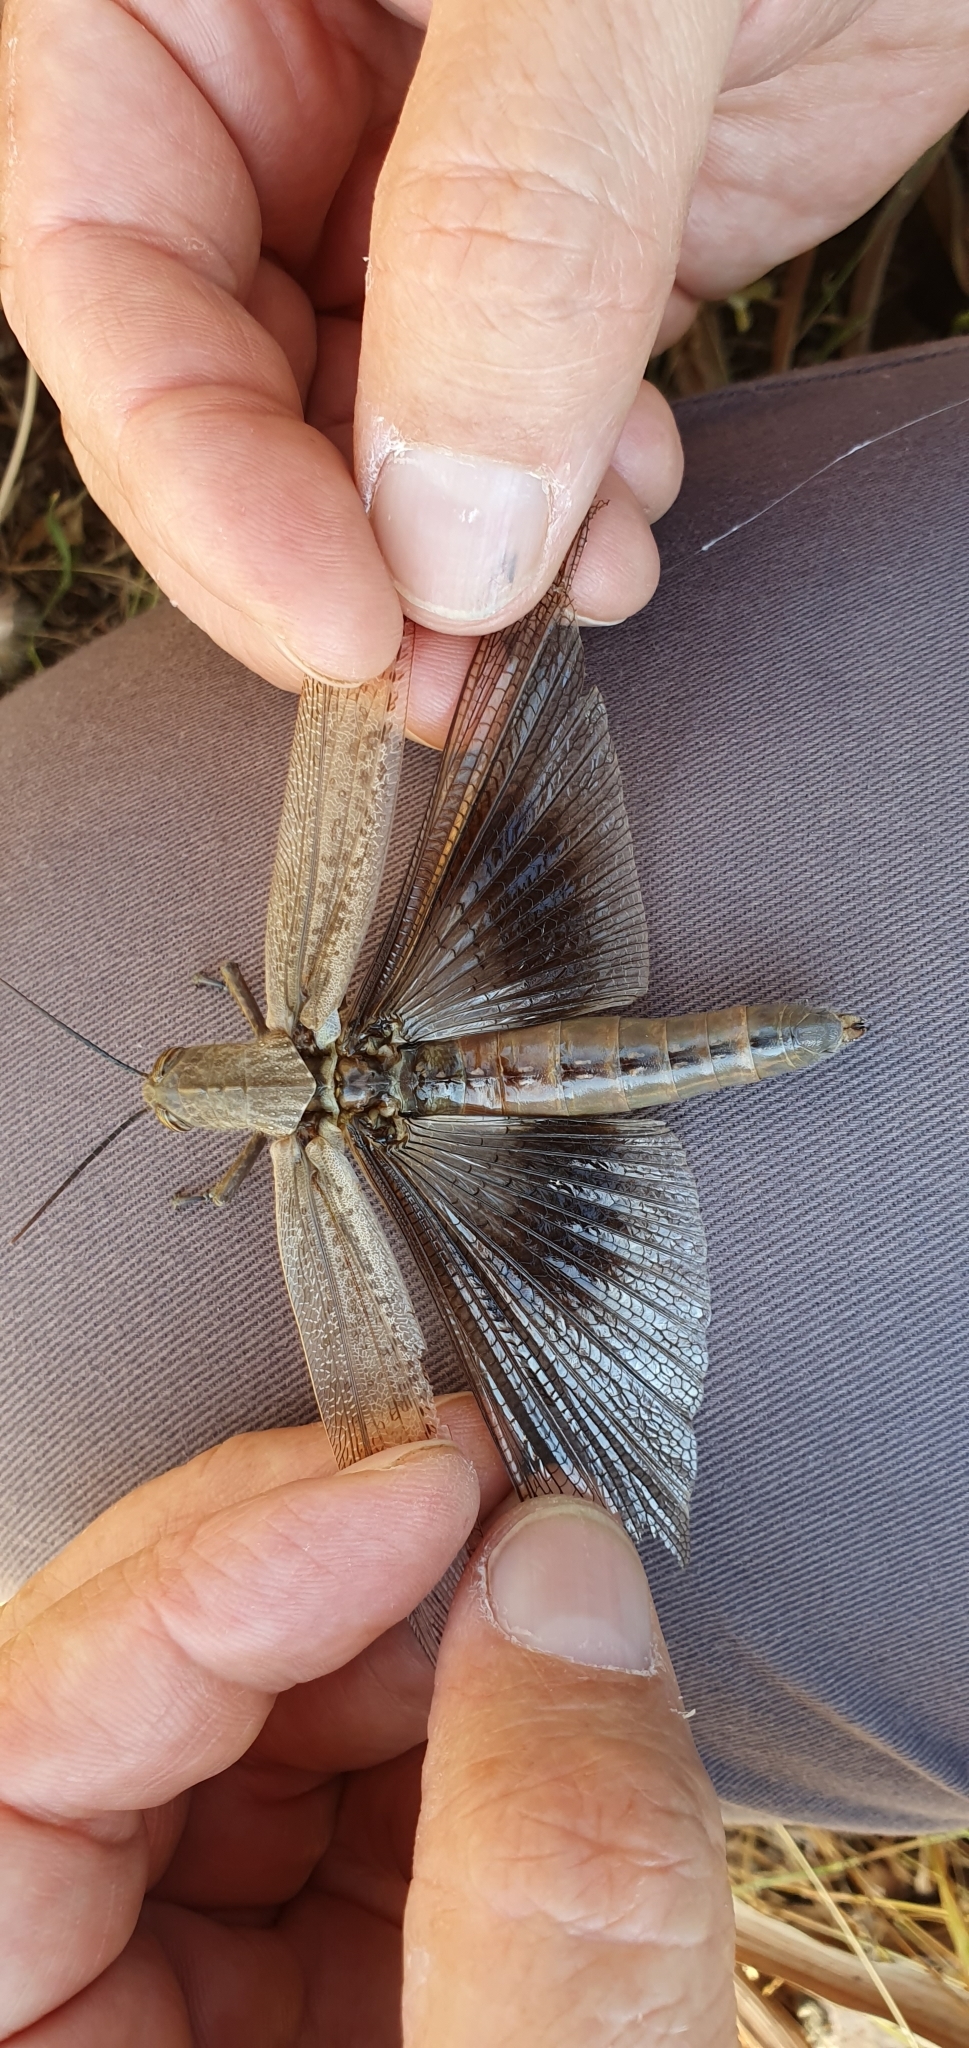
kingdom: Animalia
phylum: Arthropoda
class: Insecta
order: Orthoptera
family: Acrididae
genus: Anacridium
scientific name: Anacridium aegyptium
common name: Egyptian grasshopper
